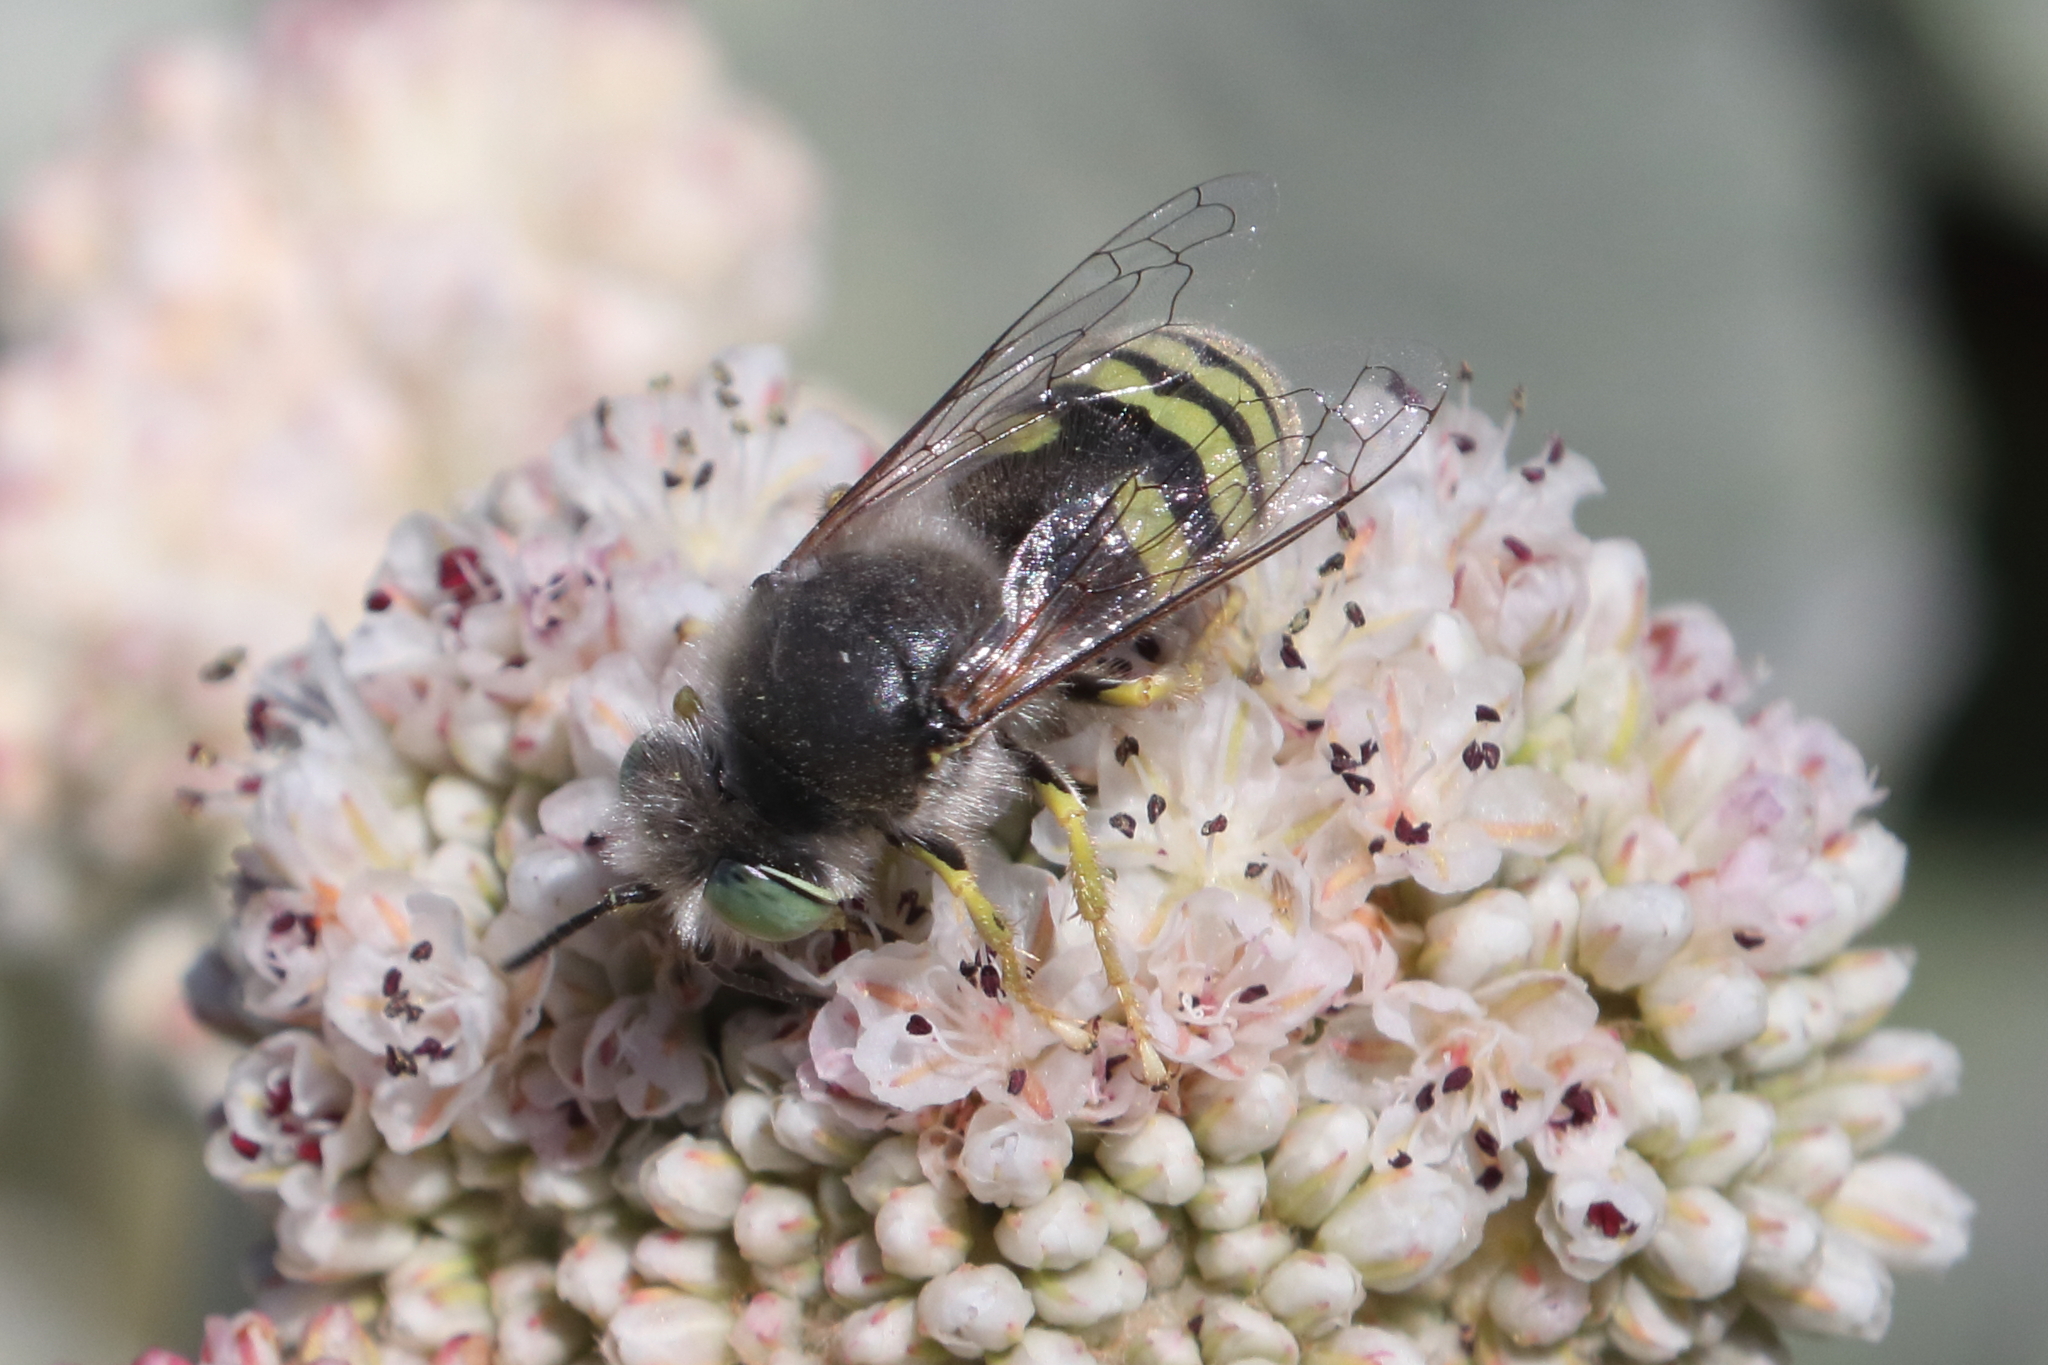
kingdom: Animalia
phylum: Arthropoda
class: Insecta
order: Hymenoptera
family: Crabronidae
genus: Bembix
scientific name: Bembix americana
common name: American sand wasp
